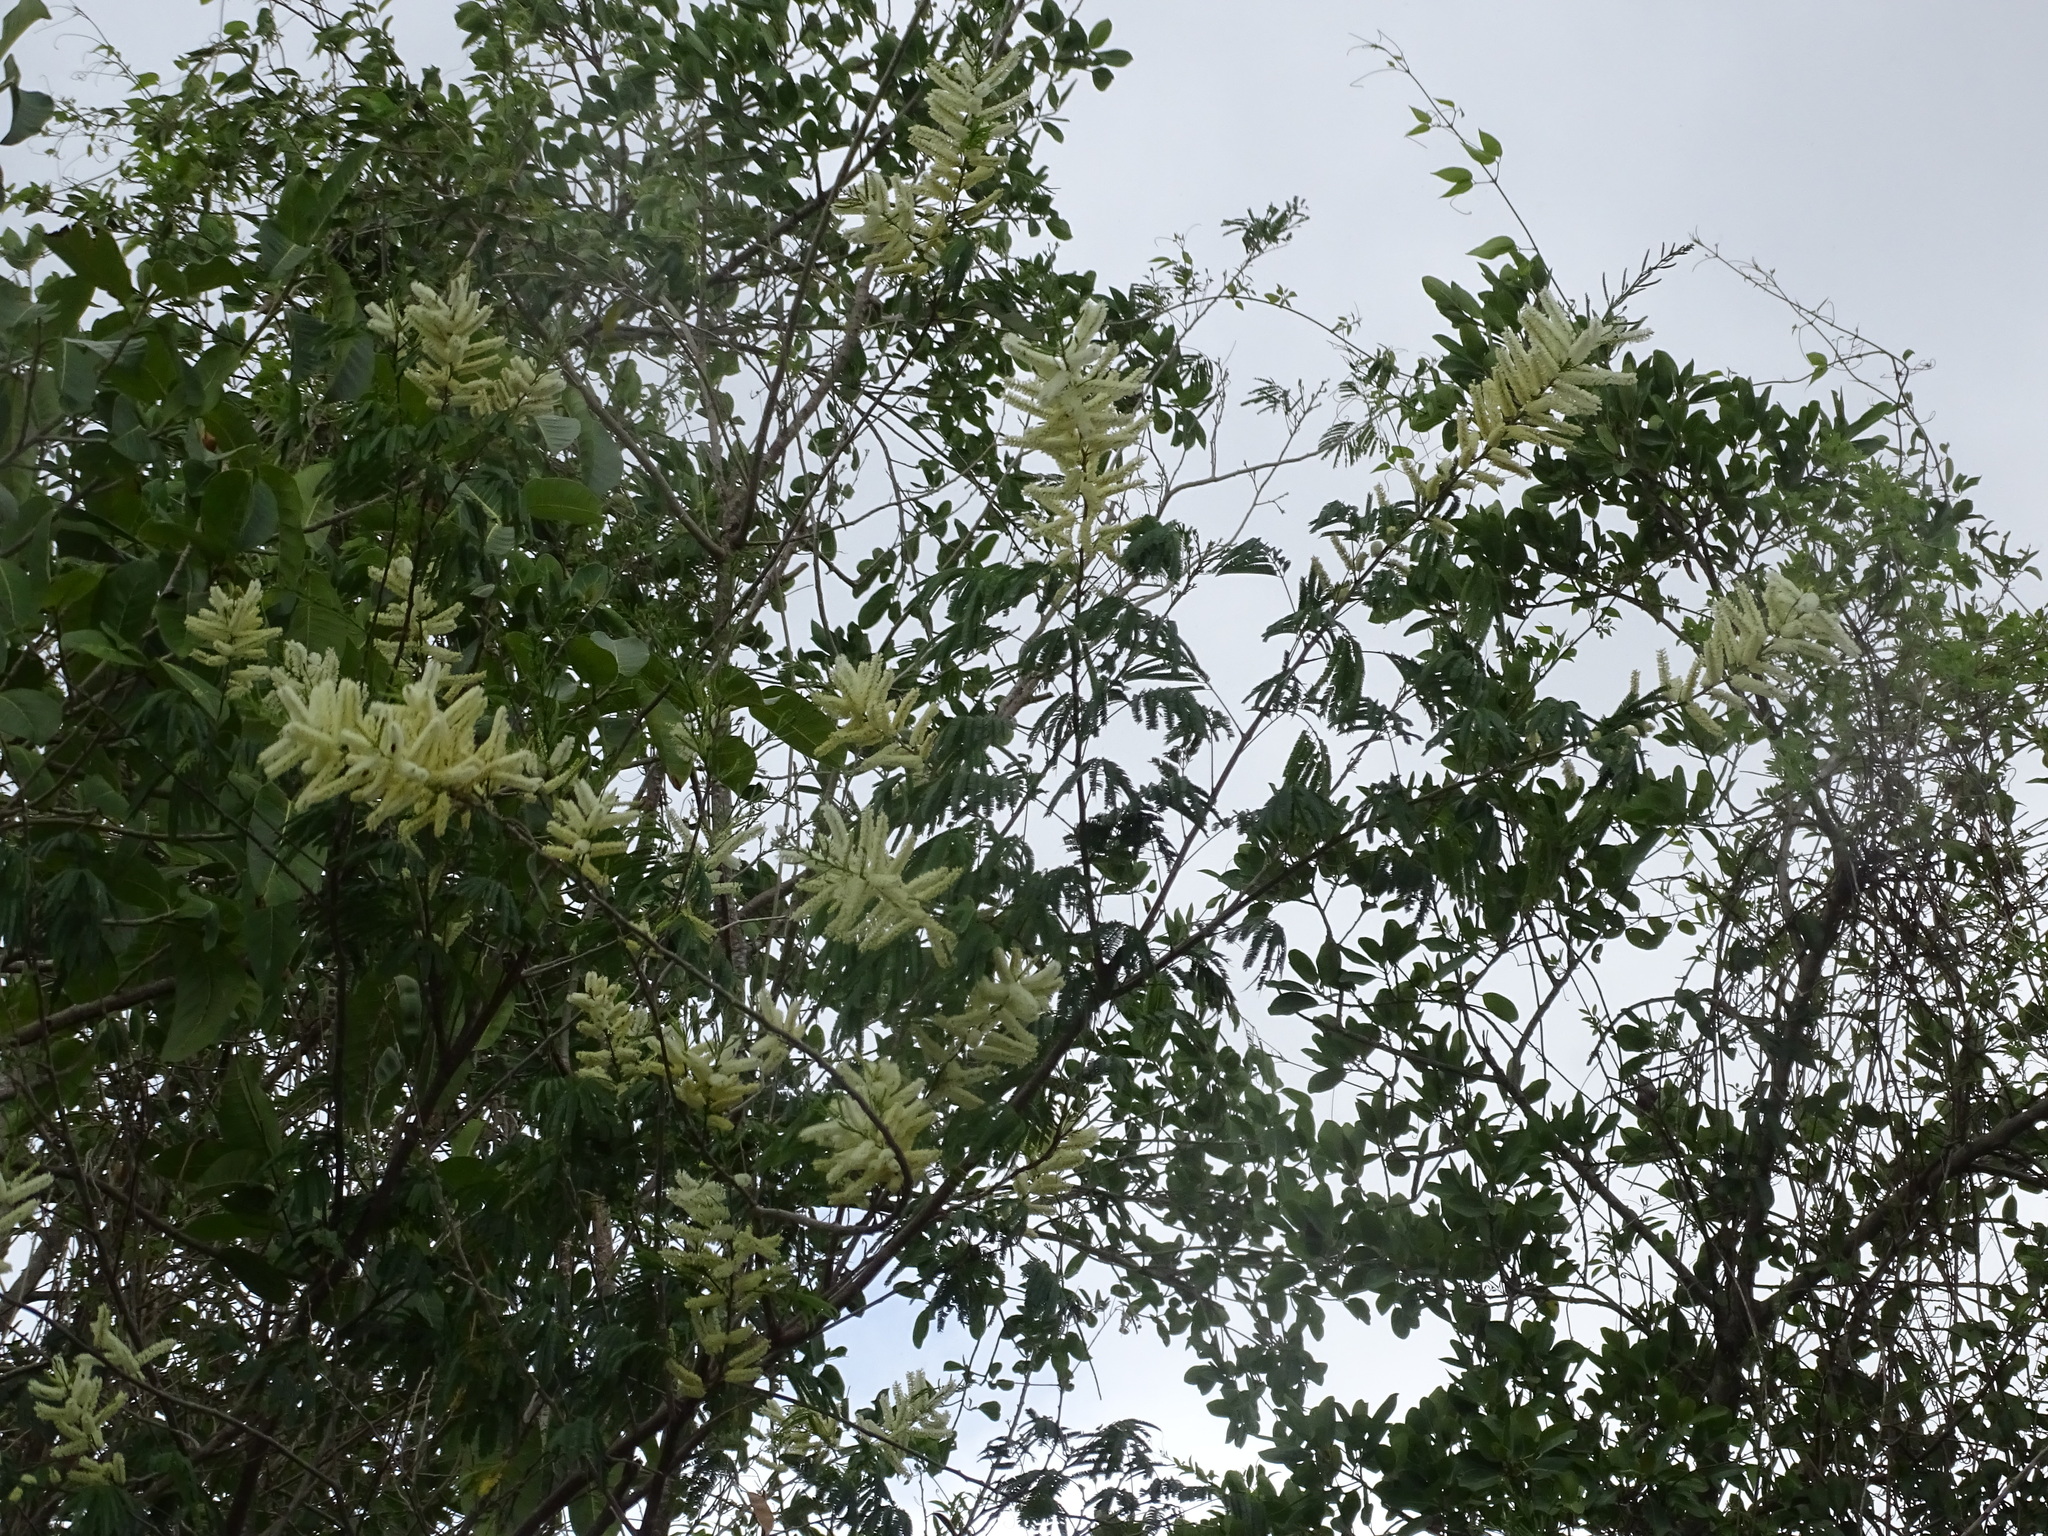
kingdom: Plantae
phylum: Tracheophyta
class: Magnoliopsida
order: Fabales
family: Fabaceae
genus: Mariosousa
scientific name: Mariosousa dolichostachya
